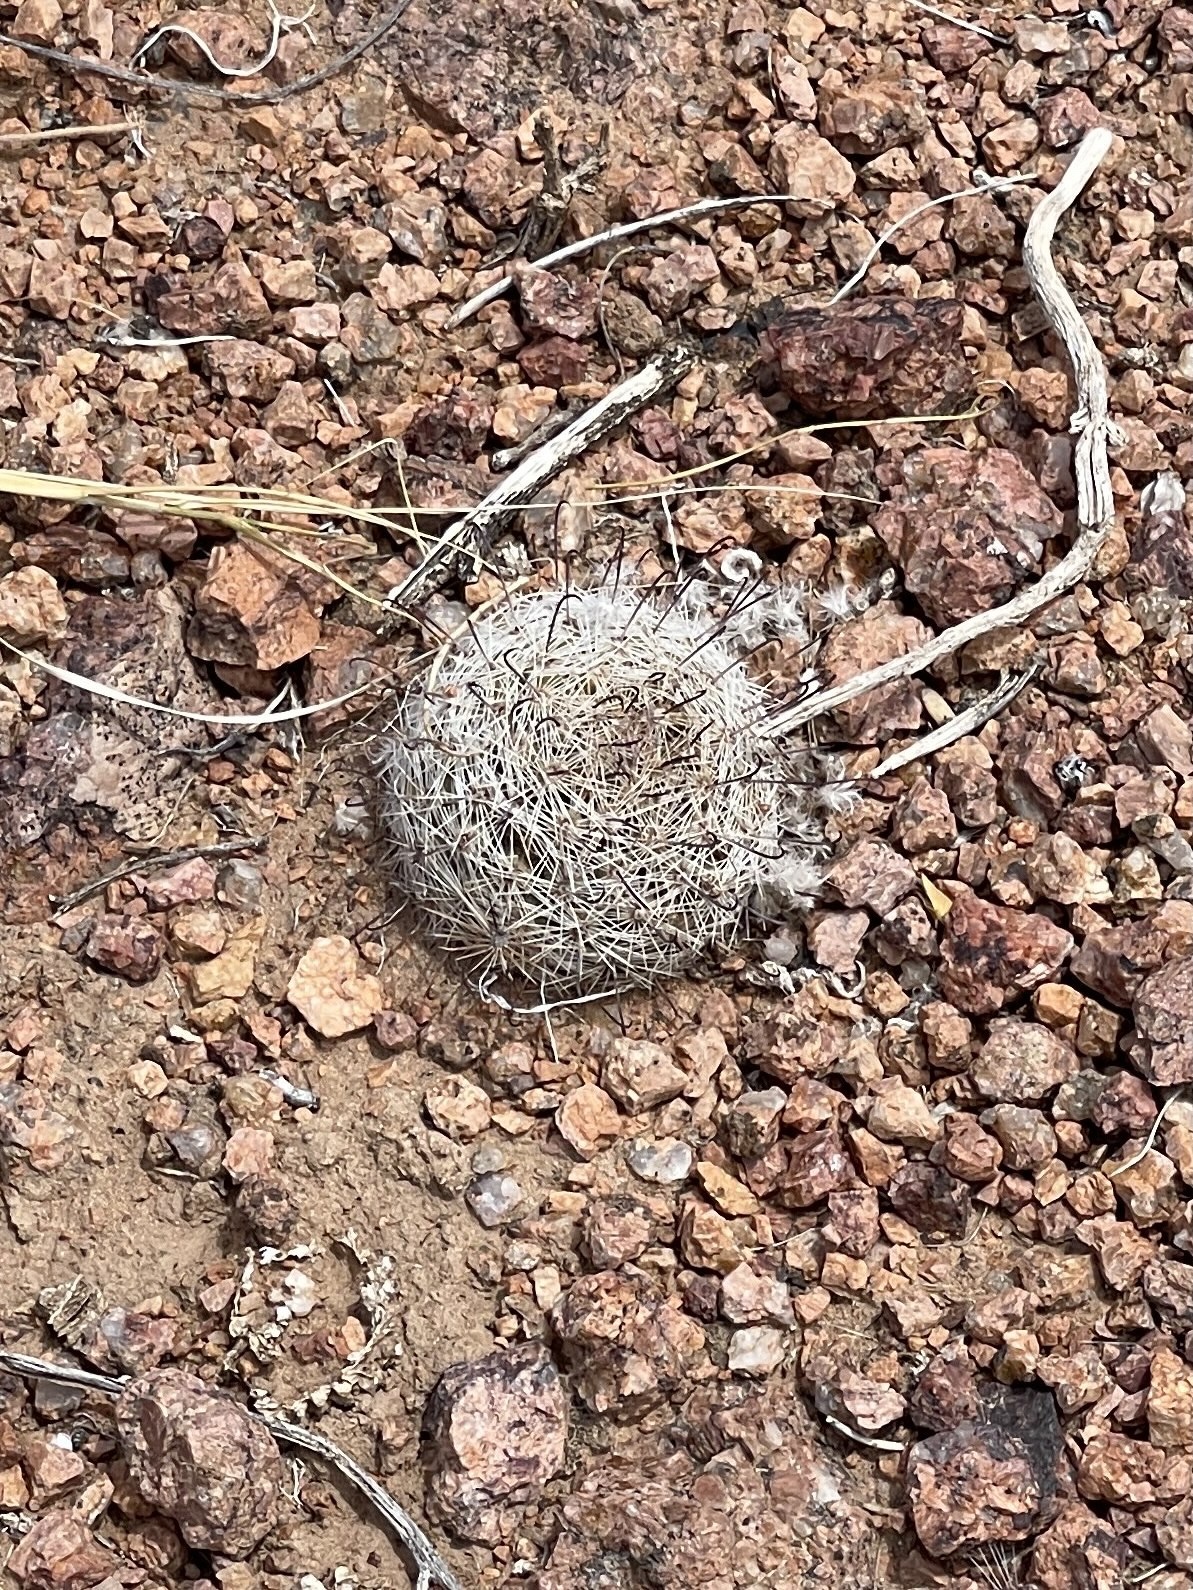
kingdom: Plantae
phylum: Tracheophyta
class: Magnoliopsida
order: Caryophyllales
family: Cactaceae
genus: Cochemiea
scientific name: Cochemiea grahamii
